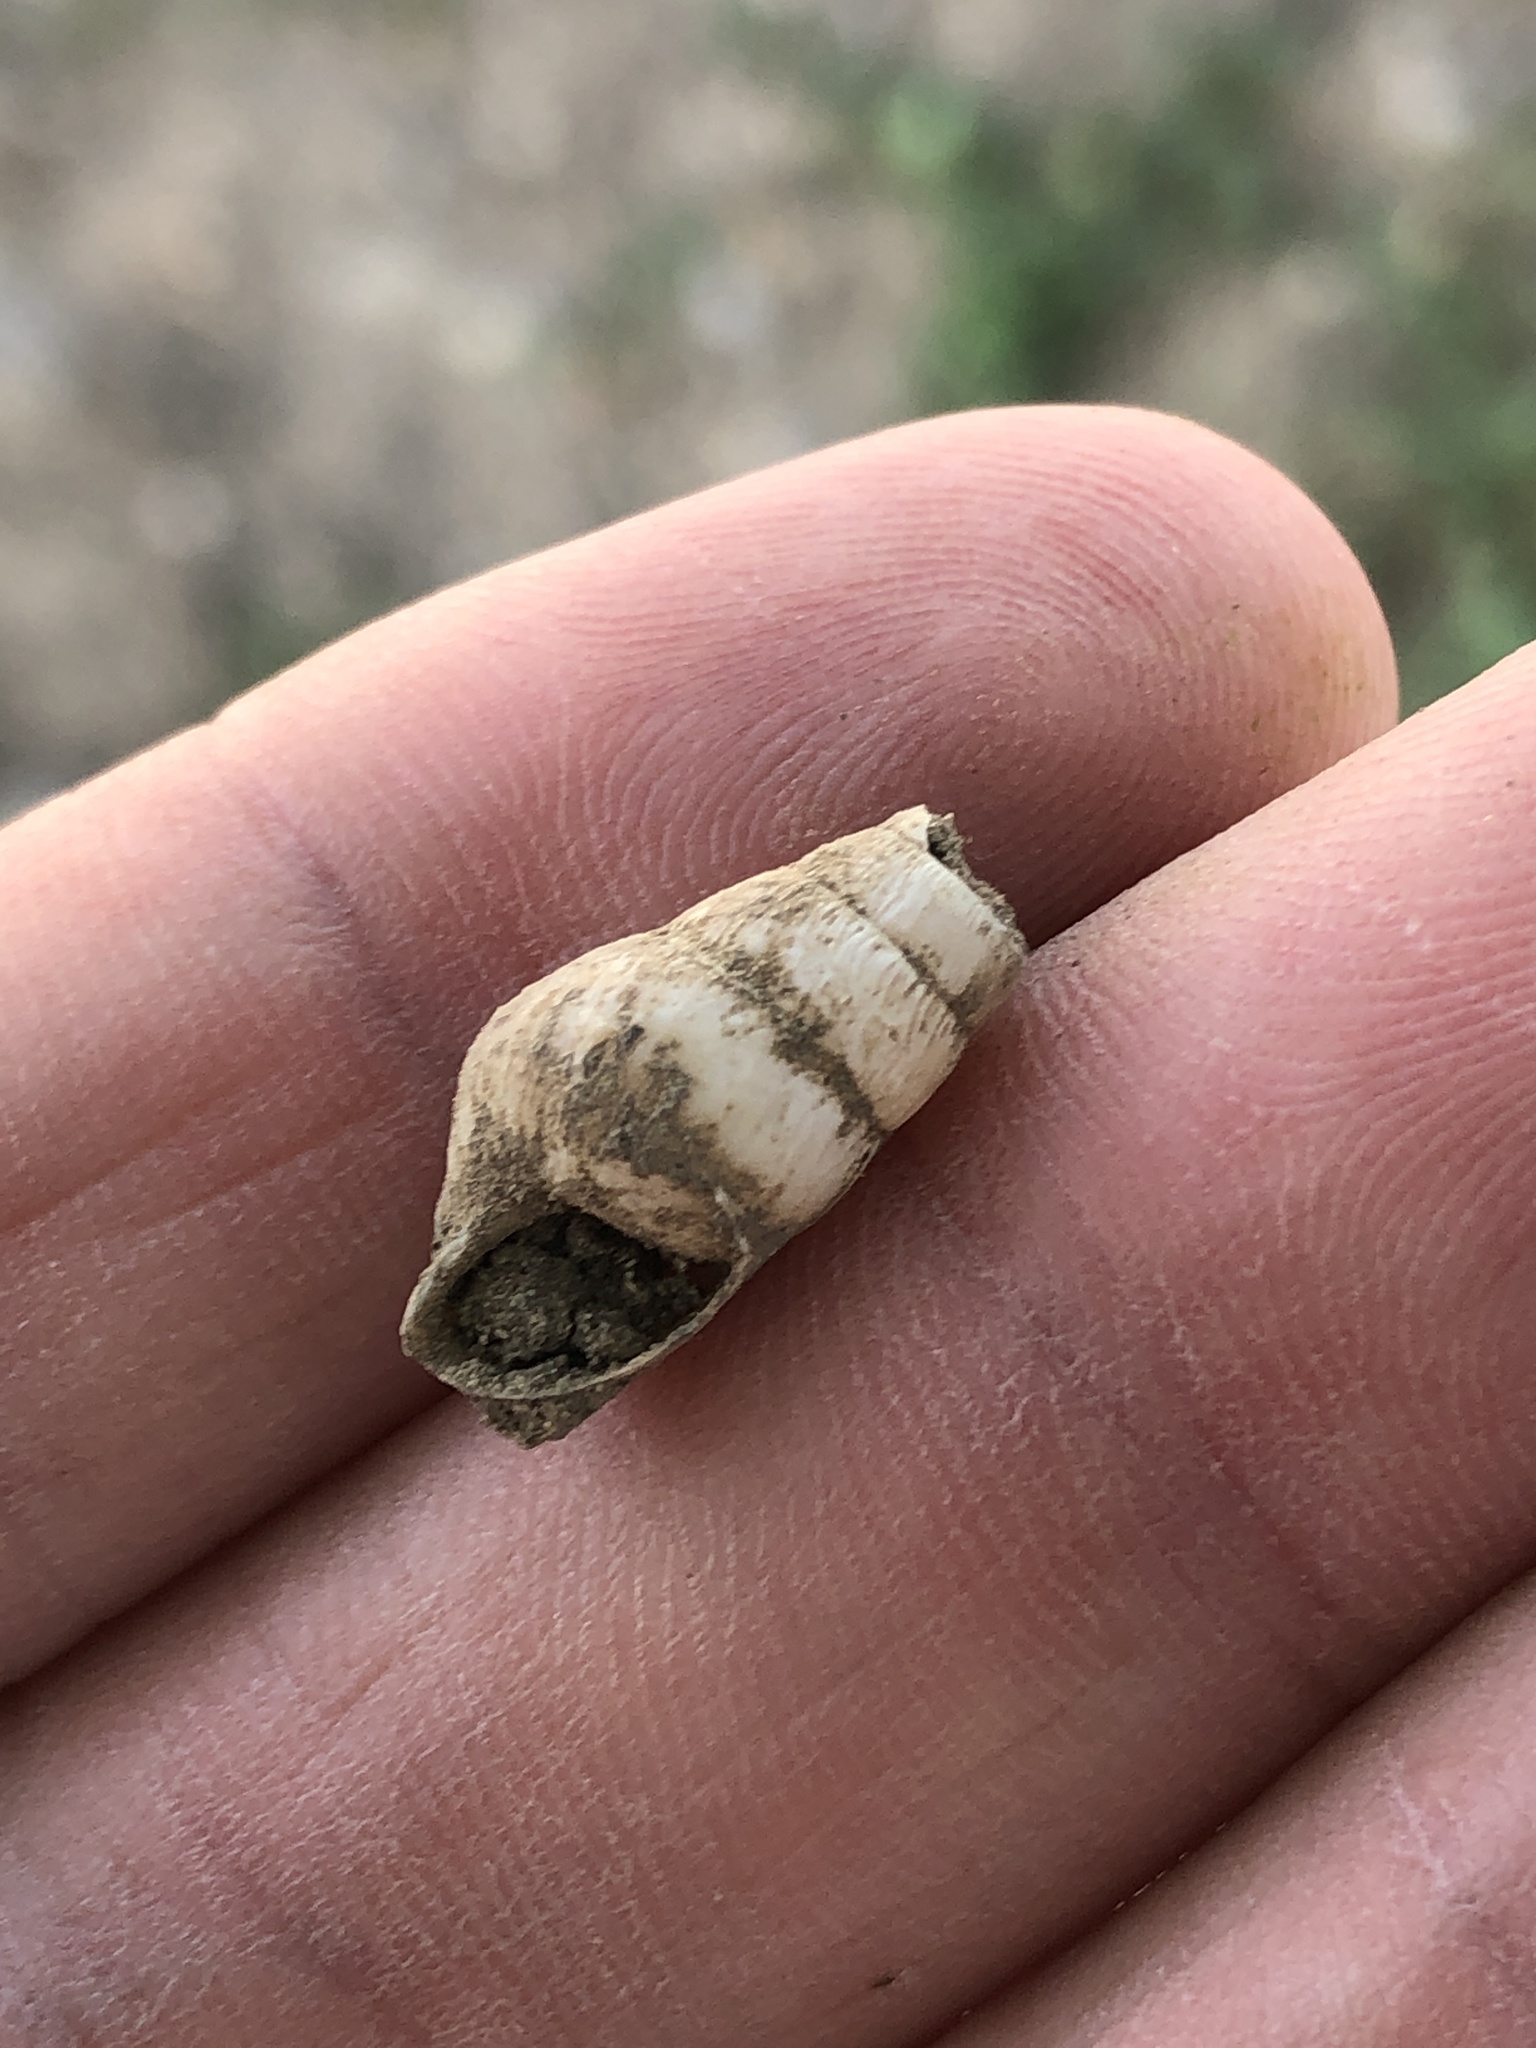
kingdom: Animalia
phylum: Mollusca
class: Gastropoda
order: Stylommatophora
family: Achatinidae
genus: Rumina
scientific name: Rumina decollata
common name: Decollate snail
